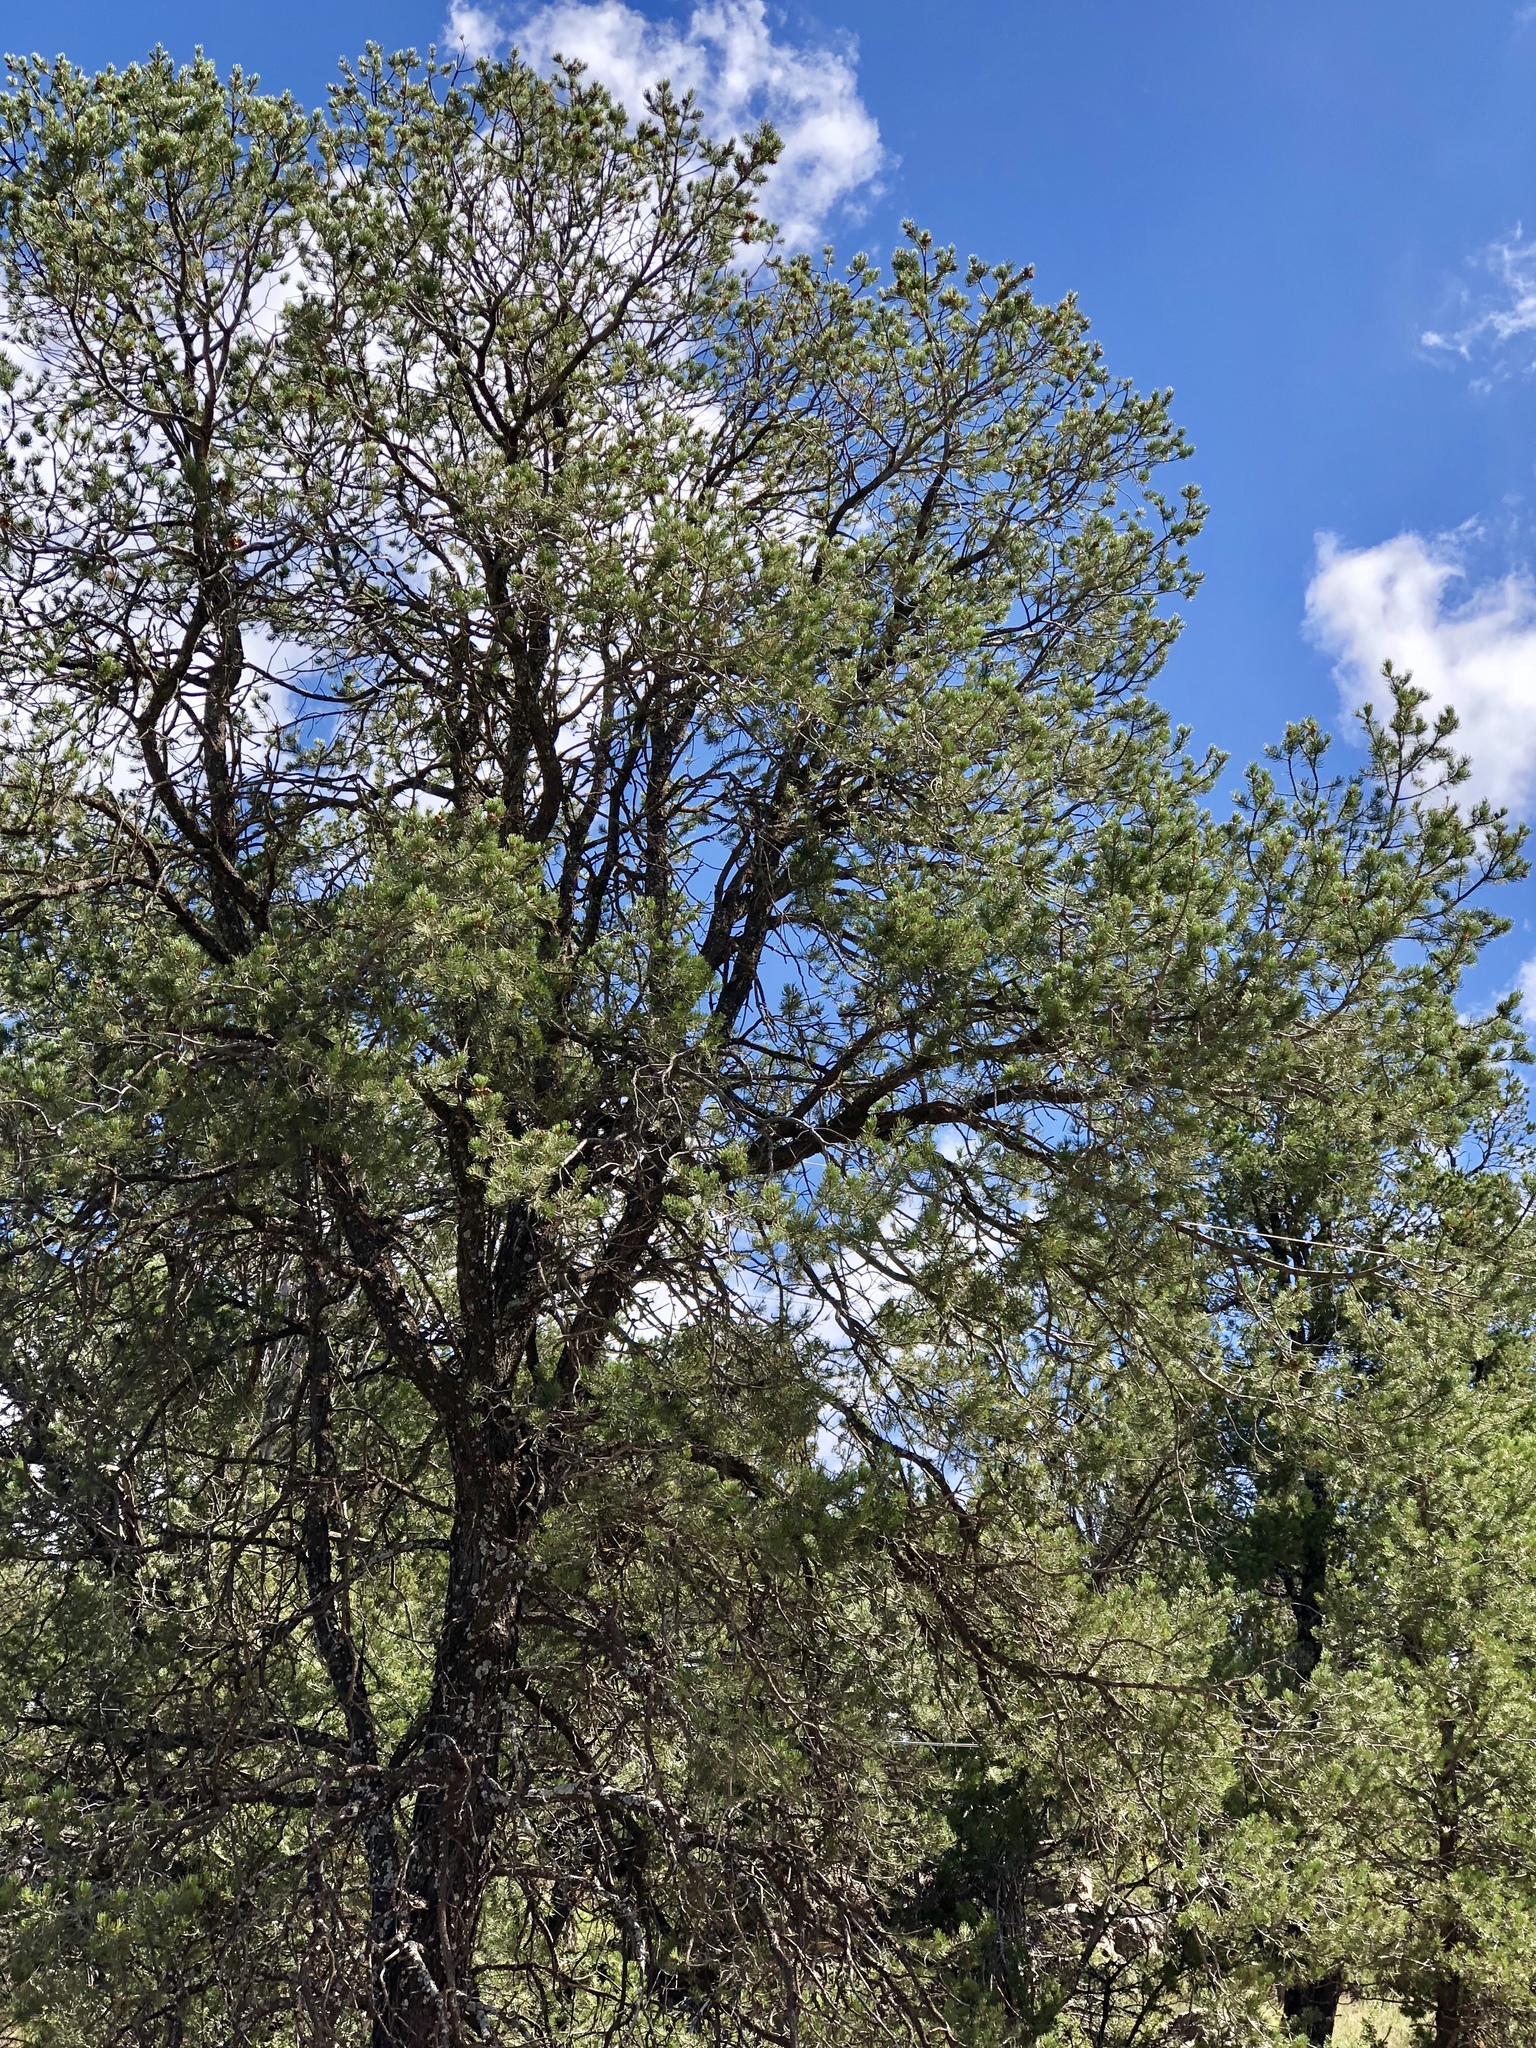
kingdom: Plantae
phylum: Tracheophyta
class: Pinopsida
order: Pinales
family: Pinaceae
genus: Pinus
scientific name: Pinus edulis
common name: Colorado pinyon
